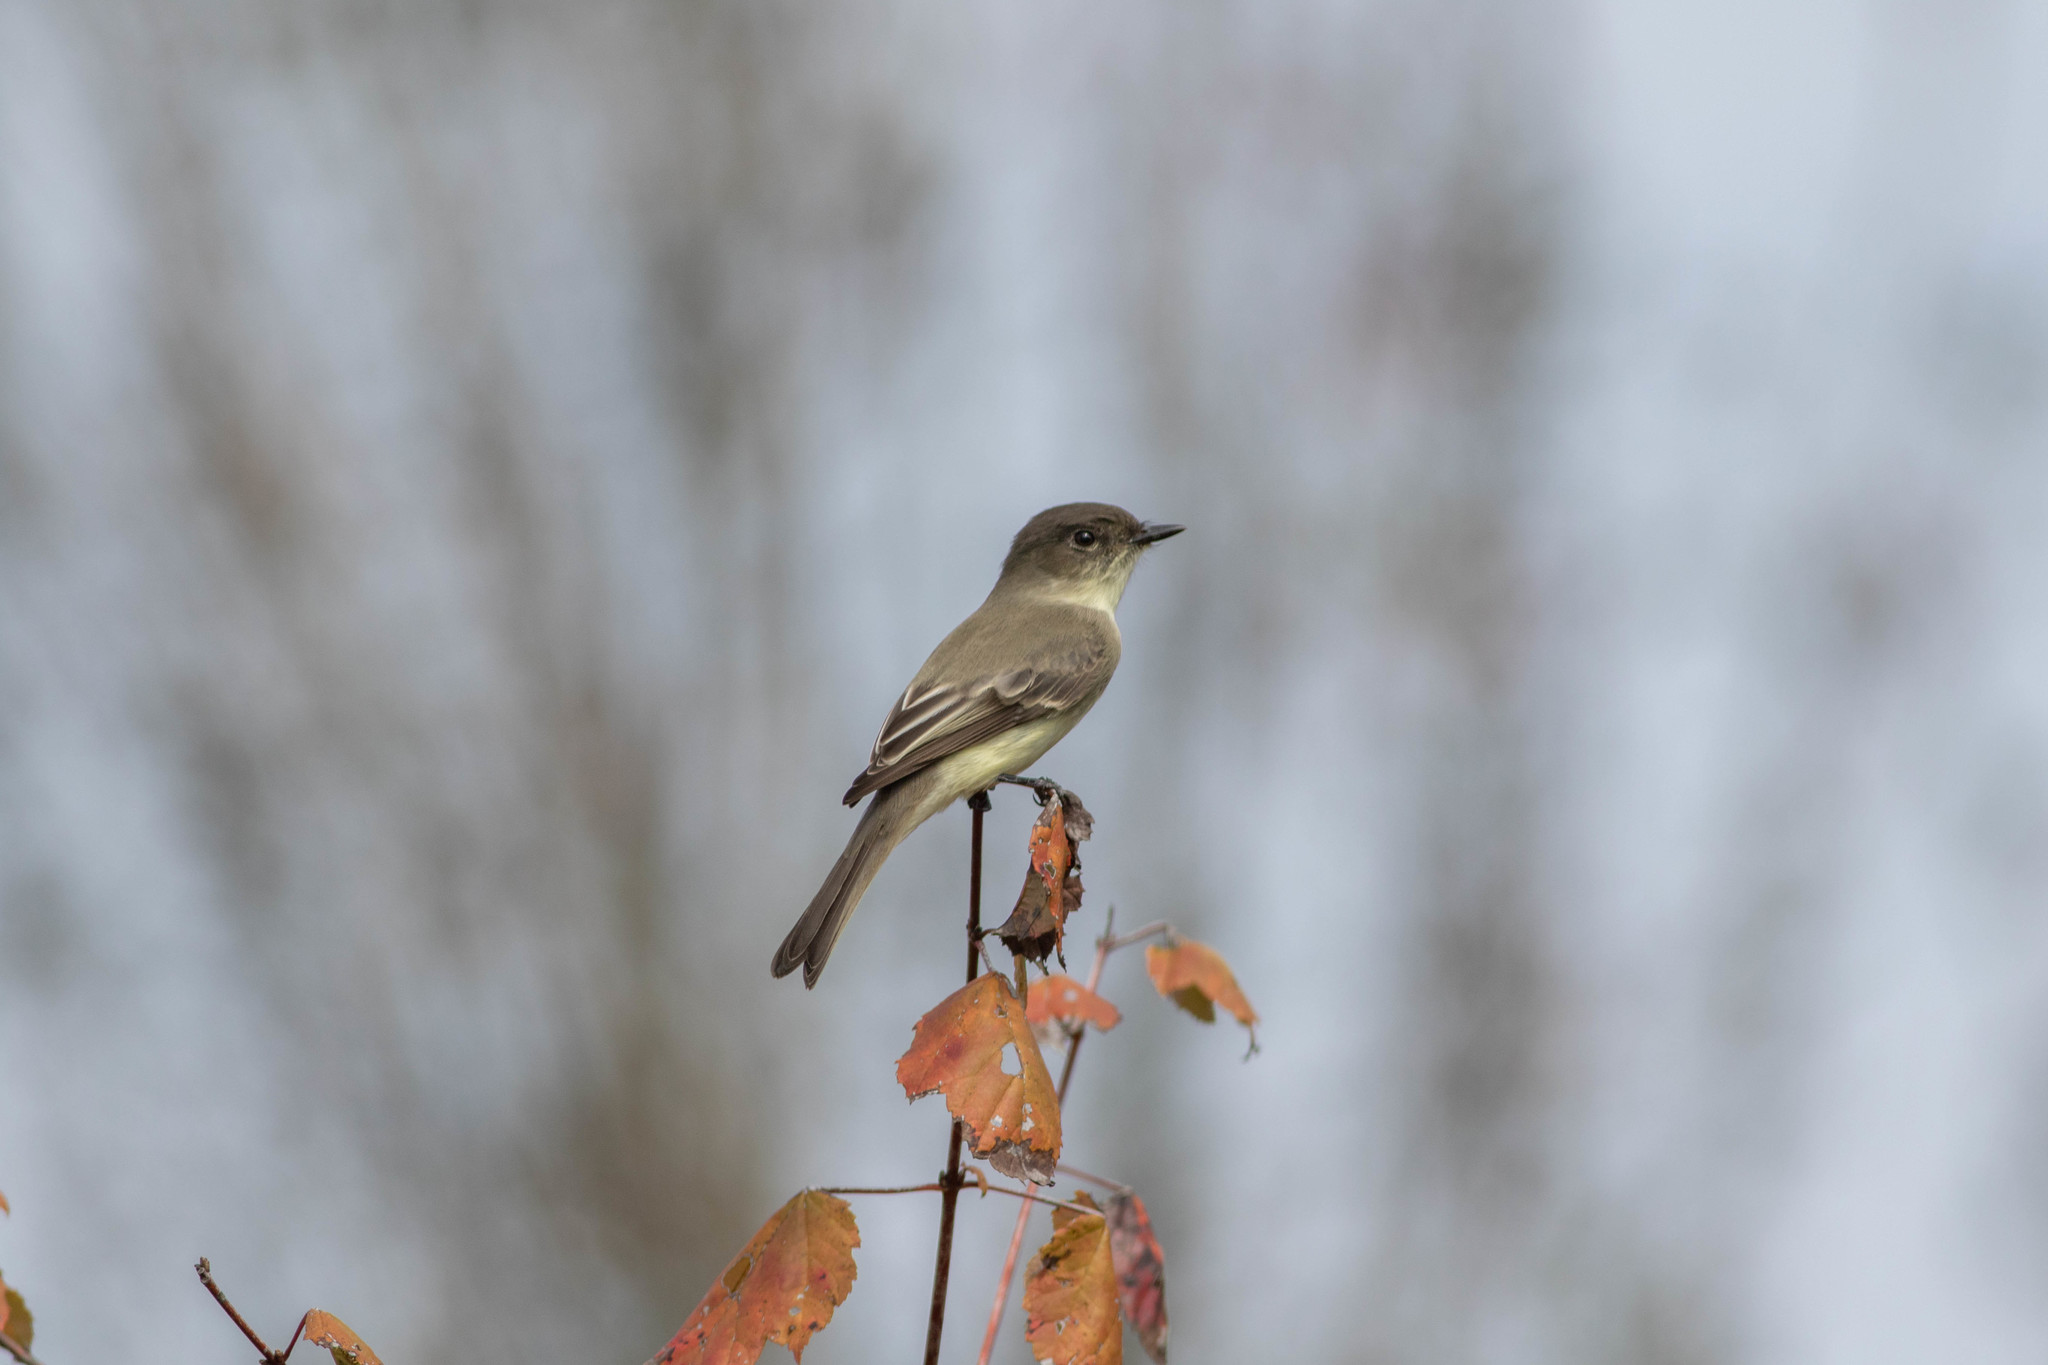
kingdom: Animalia
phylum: Chordata
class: Aves
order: Passeriformes
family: Tyrannidae
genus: Sayornis
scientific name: Sayornis phoebe
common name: Eastern phoebe
